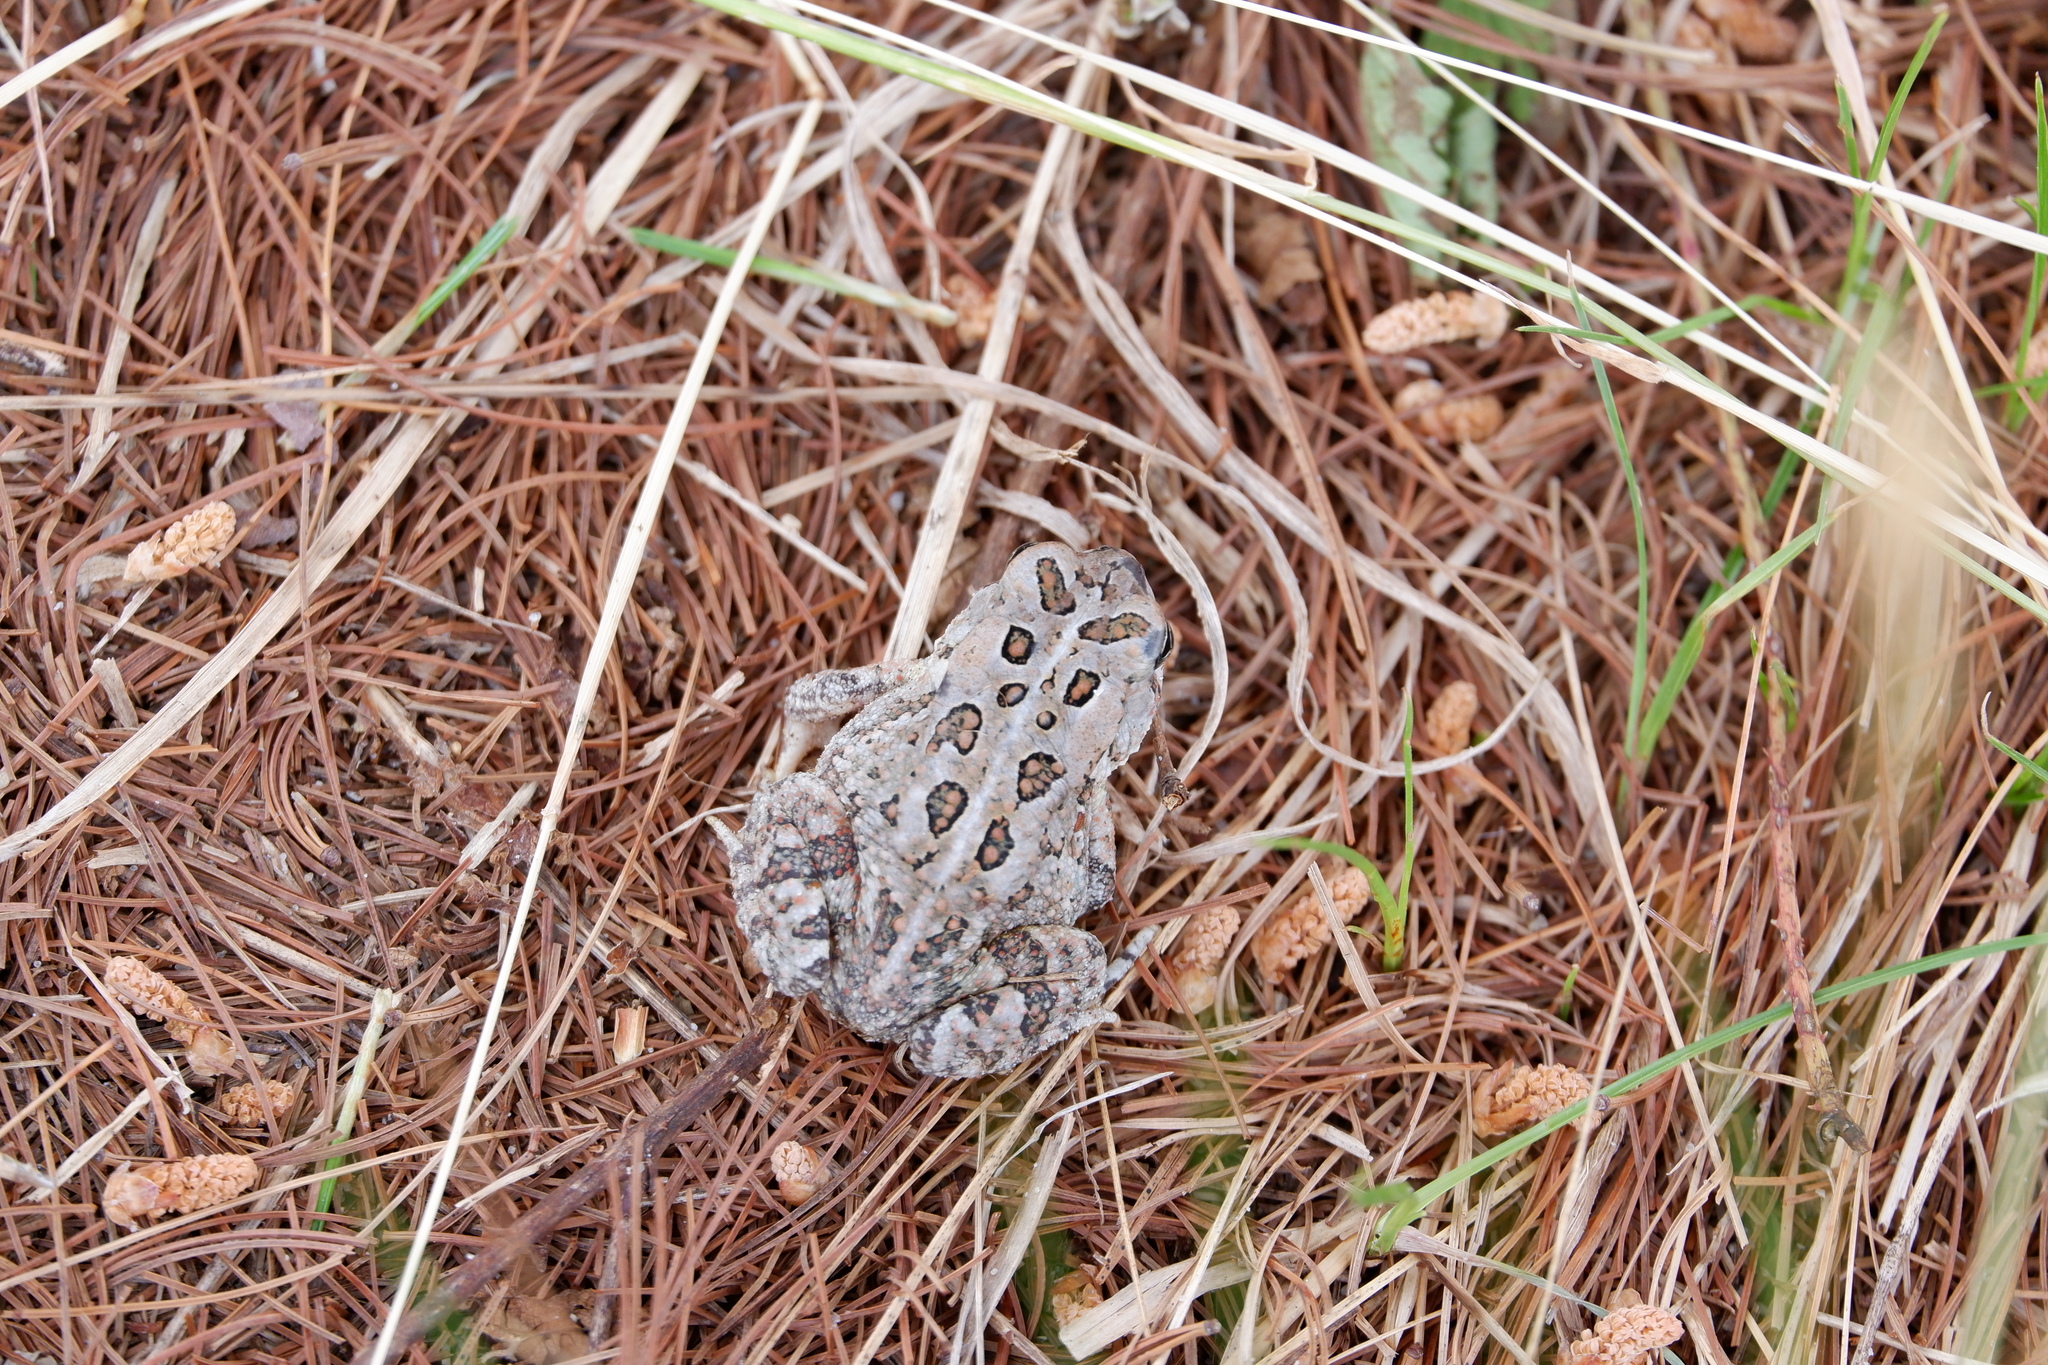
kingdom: Animalia
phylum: Chordata
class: Amphibia
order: Anura
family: Bufonidae
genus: Anaxyrus
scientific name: Anaxyrus fowleri
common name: Fowler's toad
